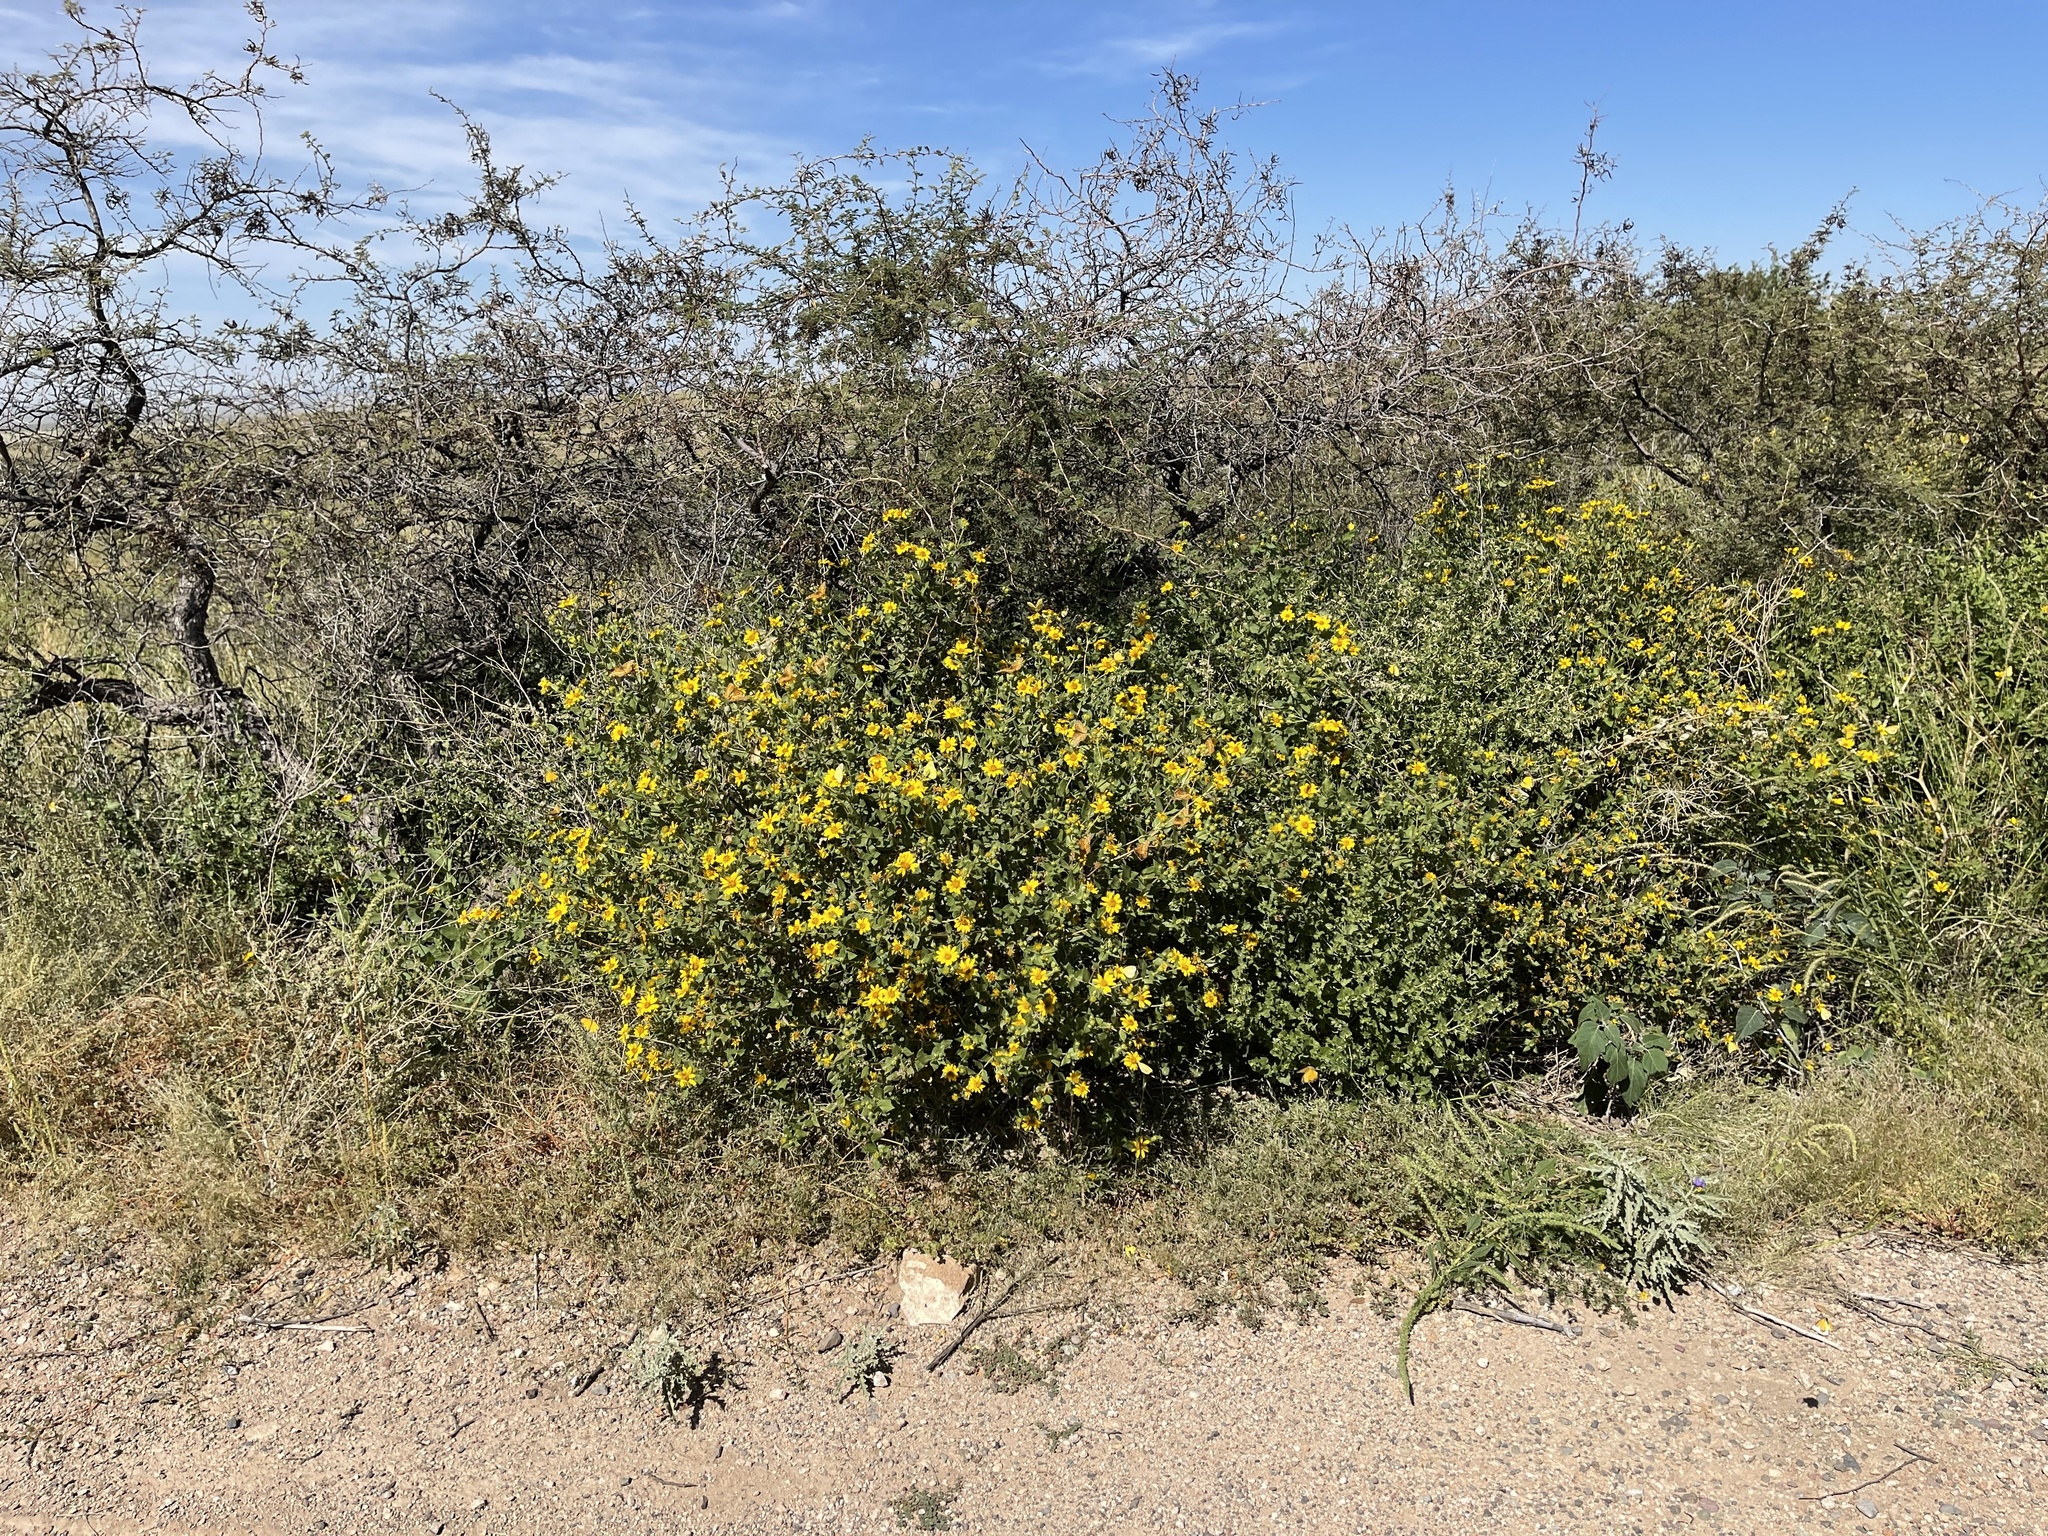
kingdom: Plantae
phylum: Tracheophyta
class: Magnoliopsida
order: Asterales
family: Asteraceae
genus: Aldama
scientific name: Aldama cordifolia
